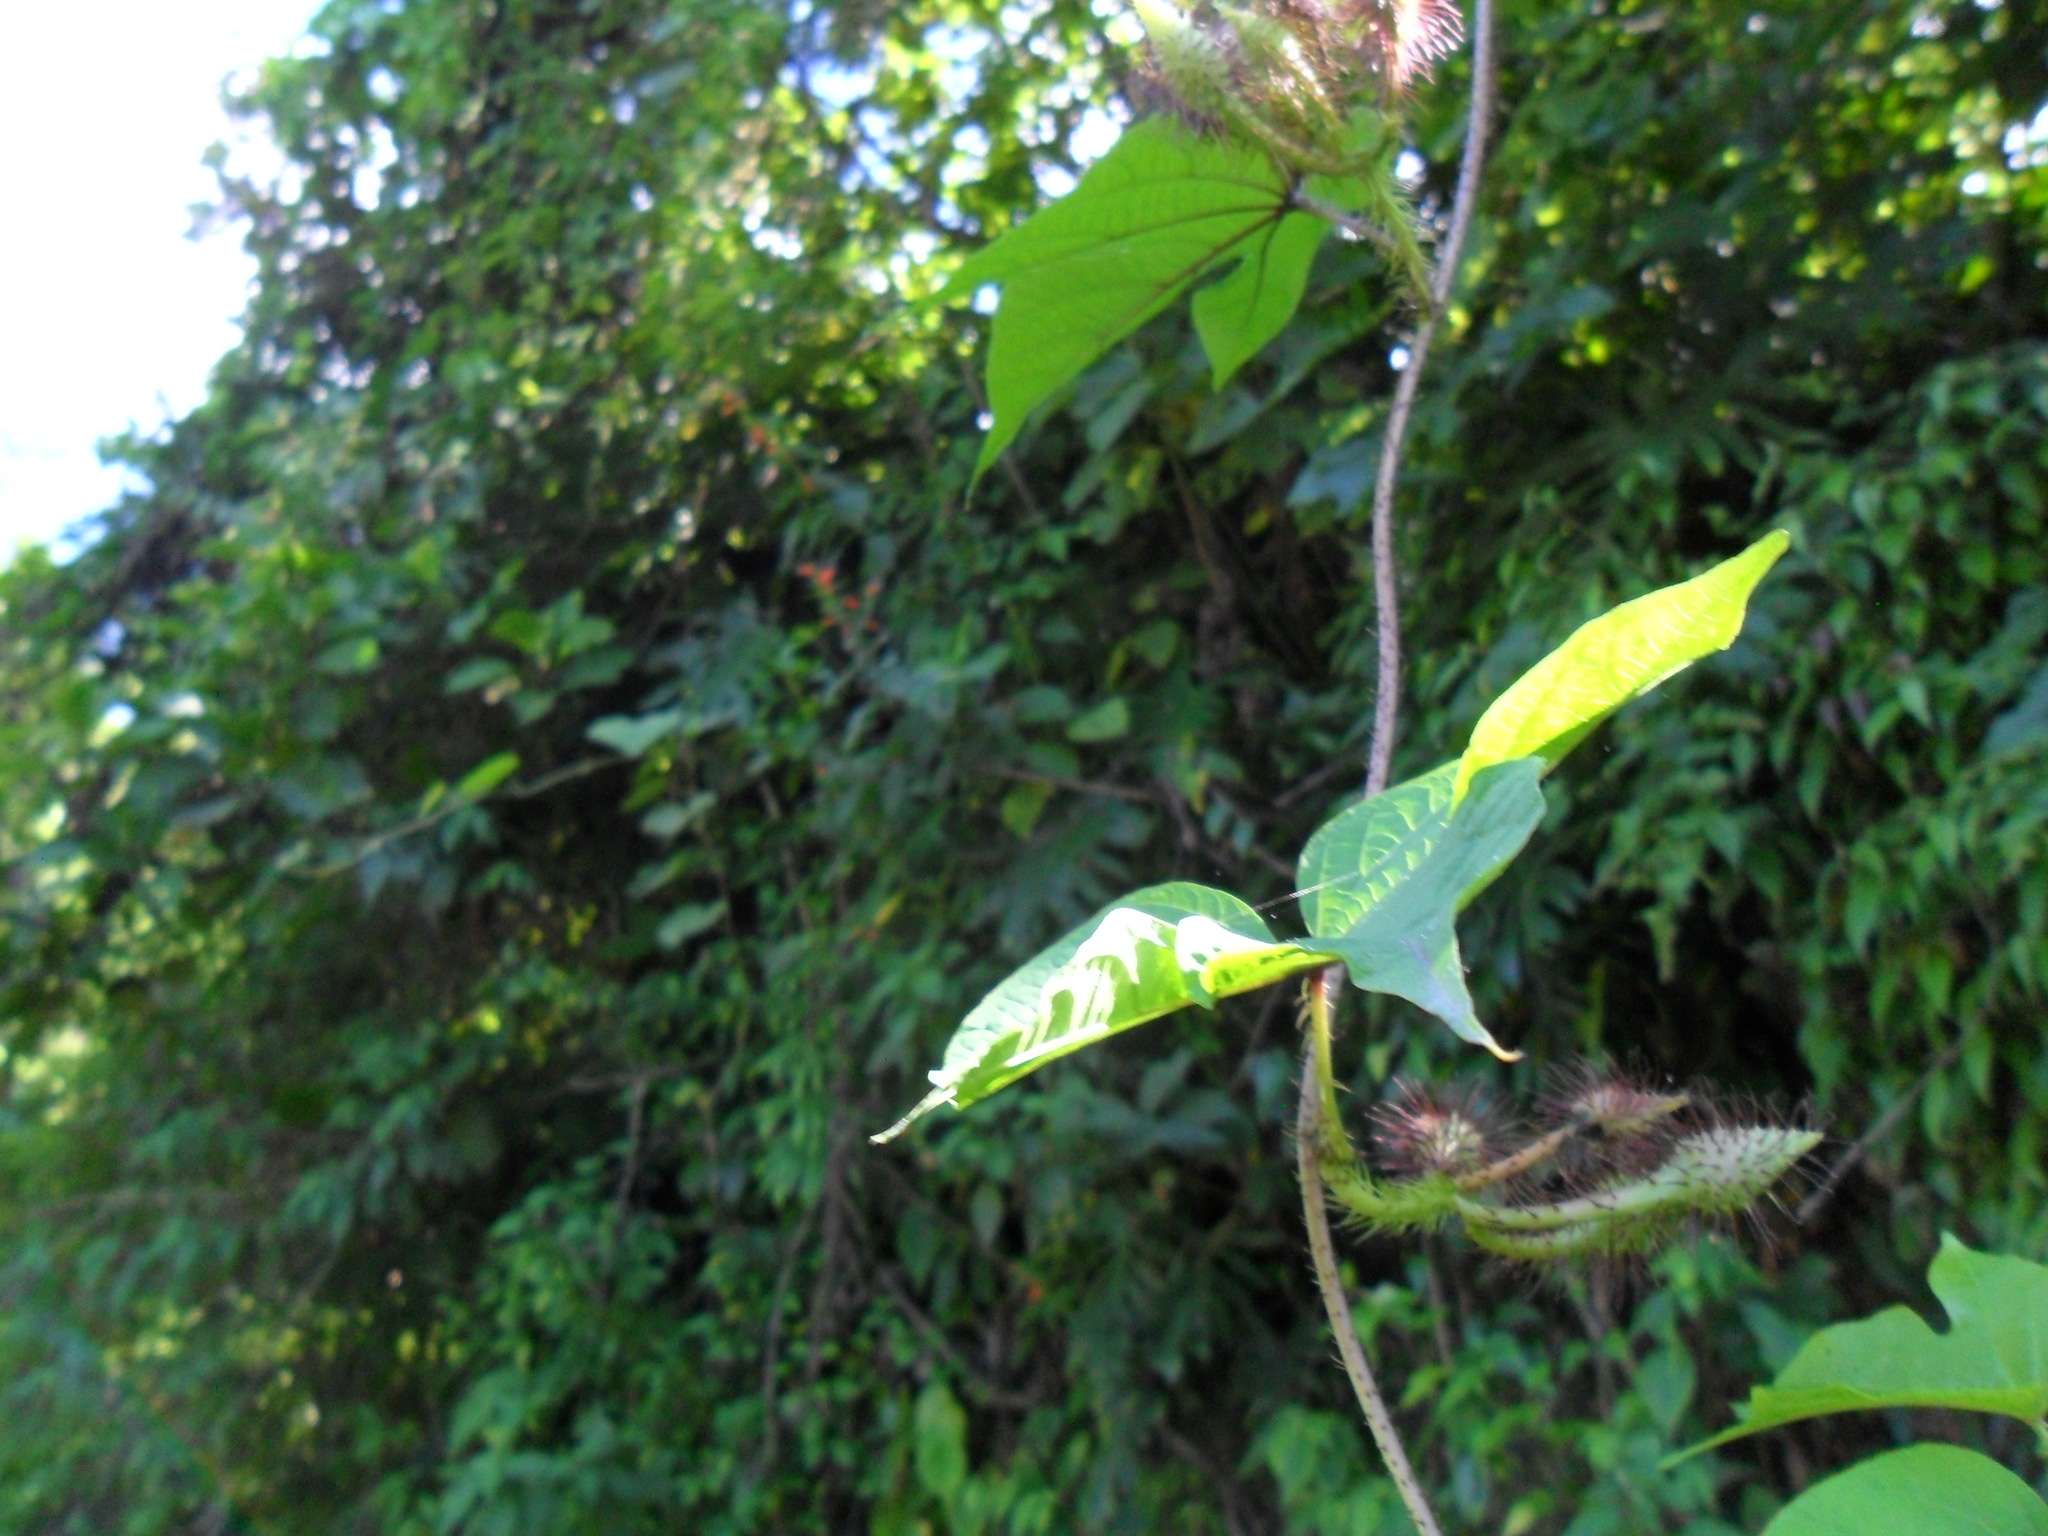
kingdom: Plantae
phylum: Tracheophyta
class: Magnoliopsida
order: Solanales
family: Convolvulaceae
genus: Ipomoea
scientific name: Ipomoea setosa
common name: Brazilian morning-glory
